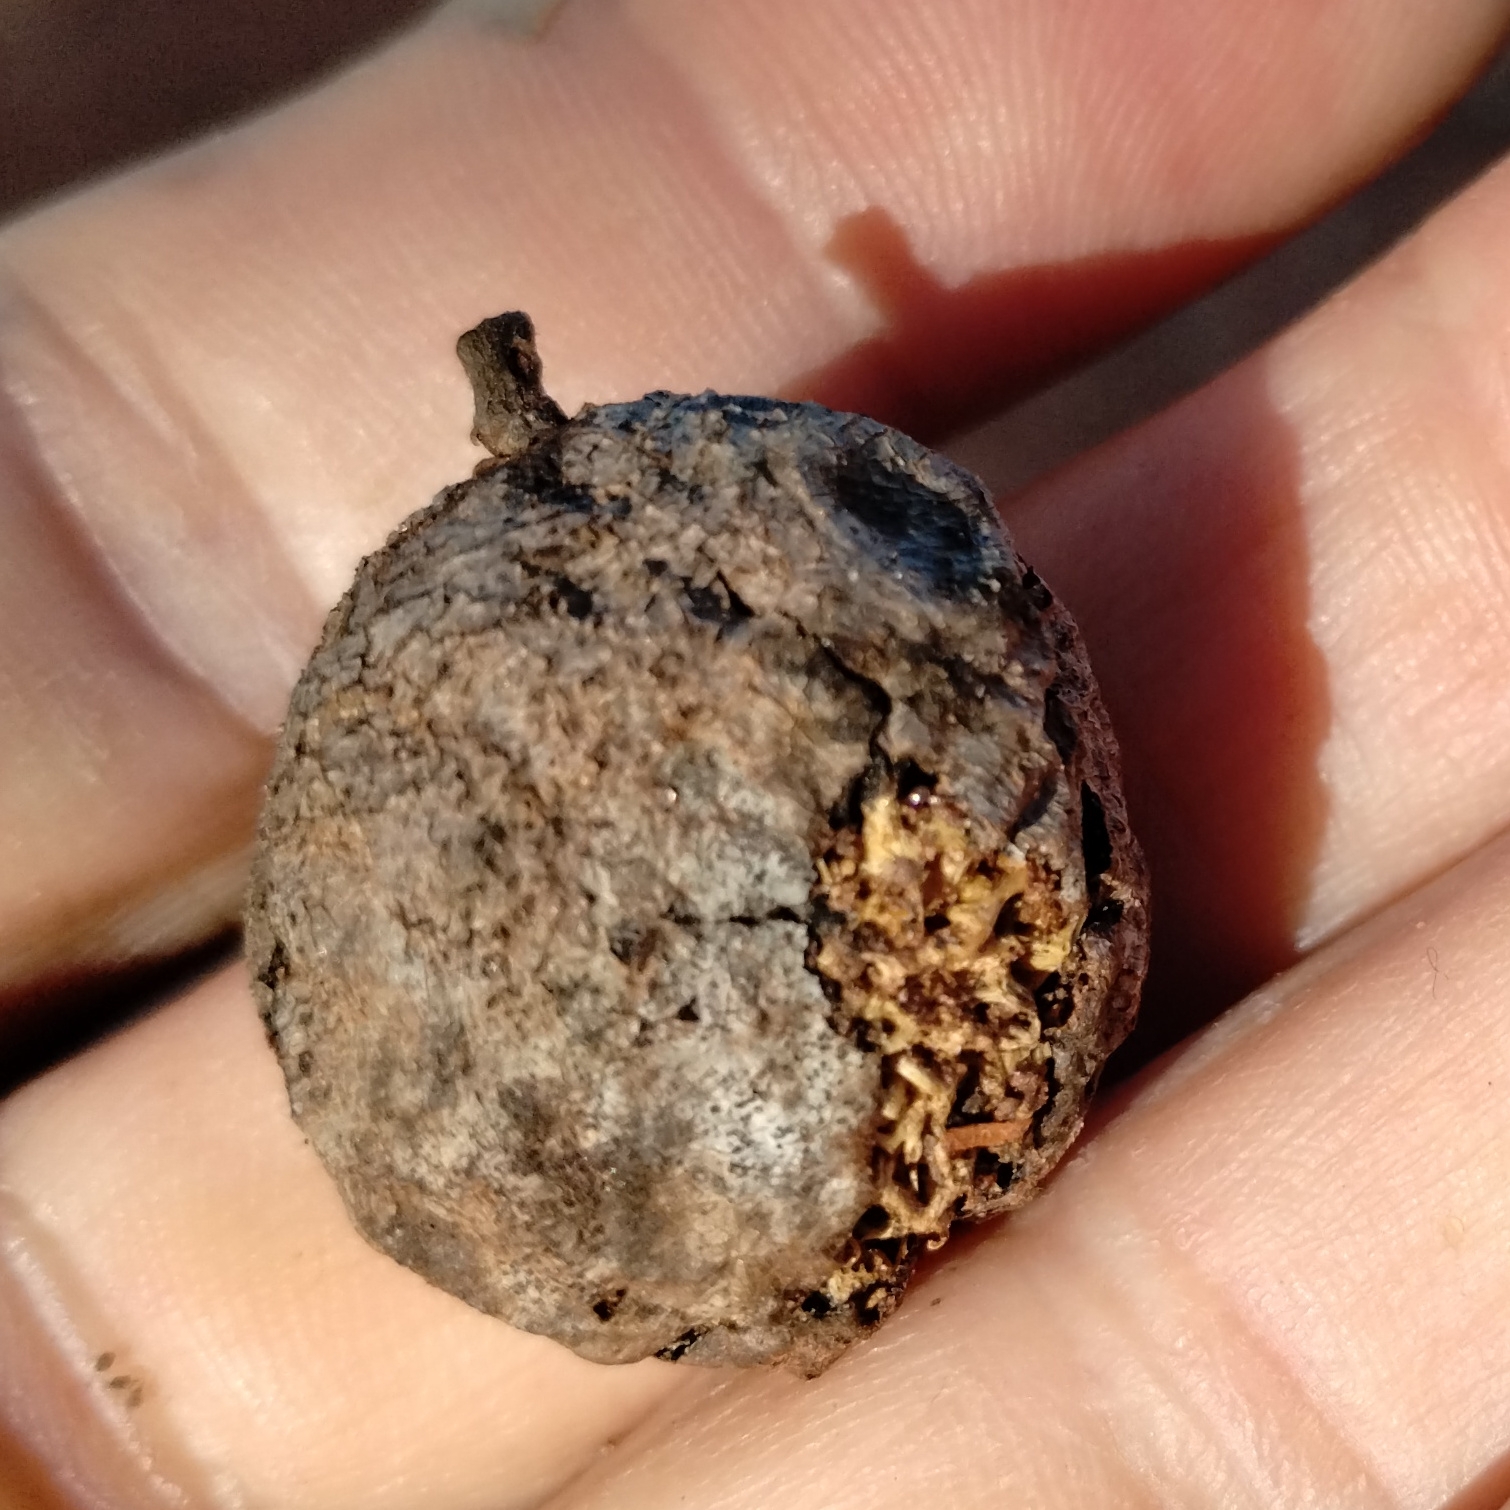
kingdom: Plantae
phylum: Tracheophyta
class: Magnoliopsida
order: Sapindales
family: Meliaceae
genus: Owenia
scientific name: Owenia vernicosa
